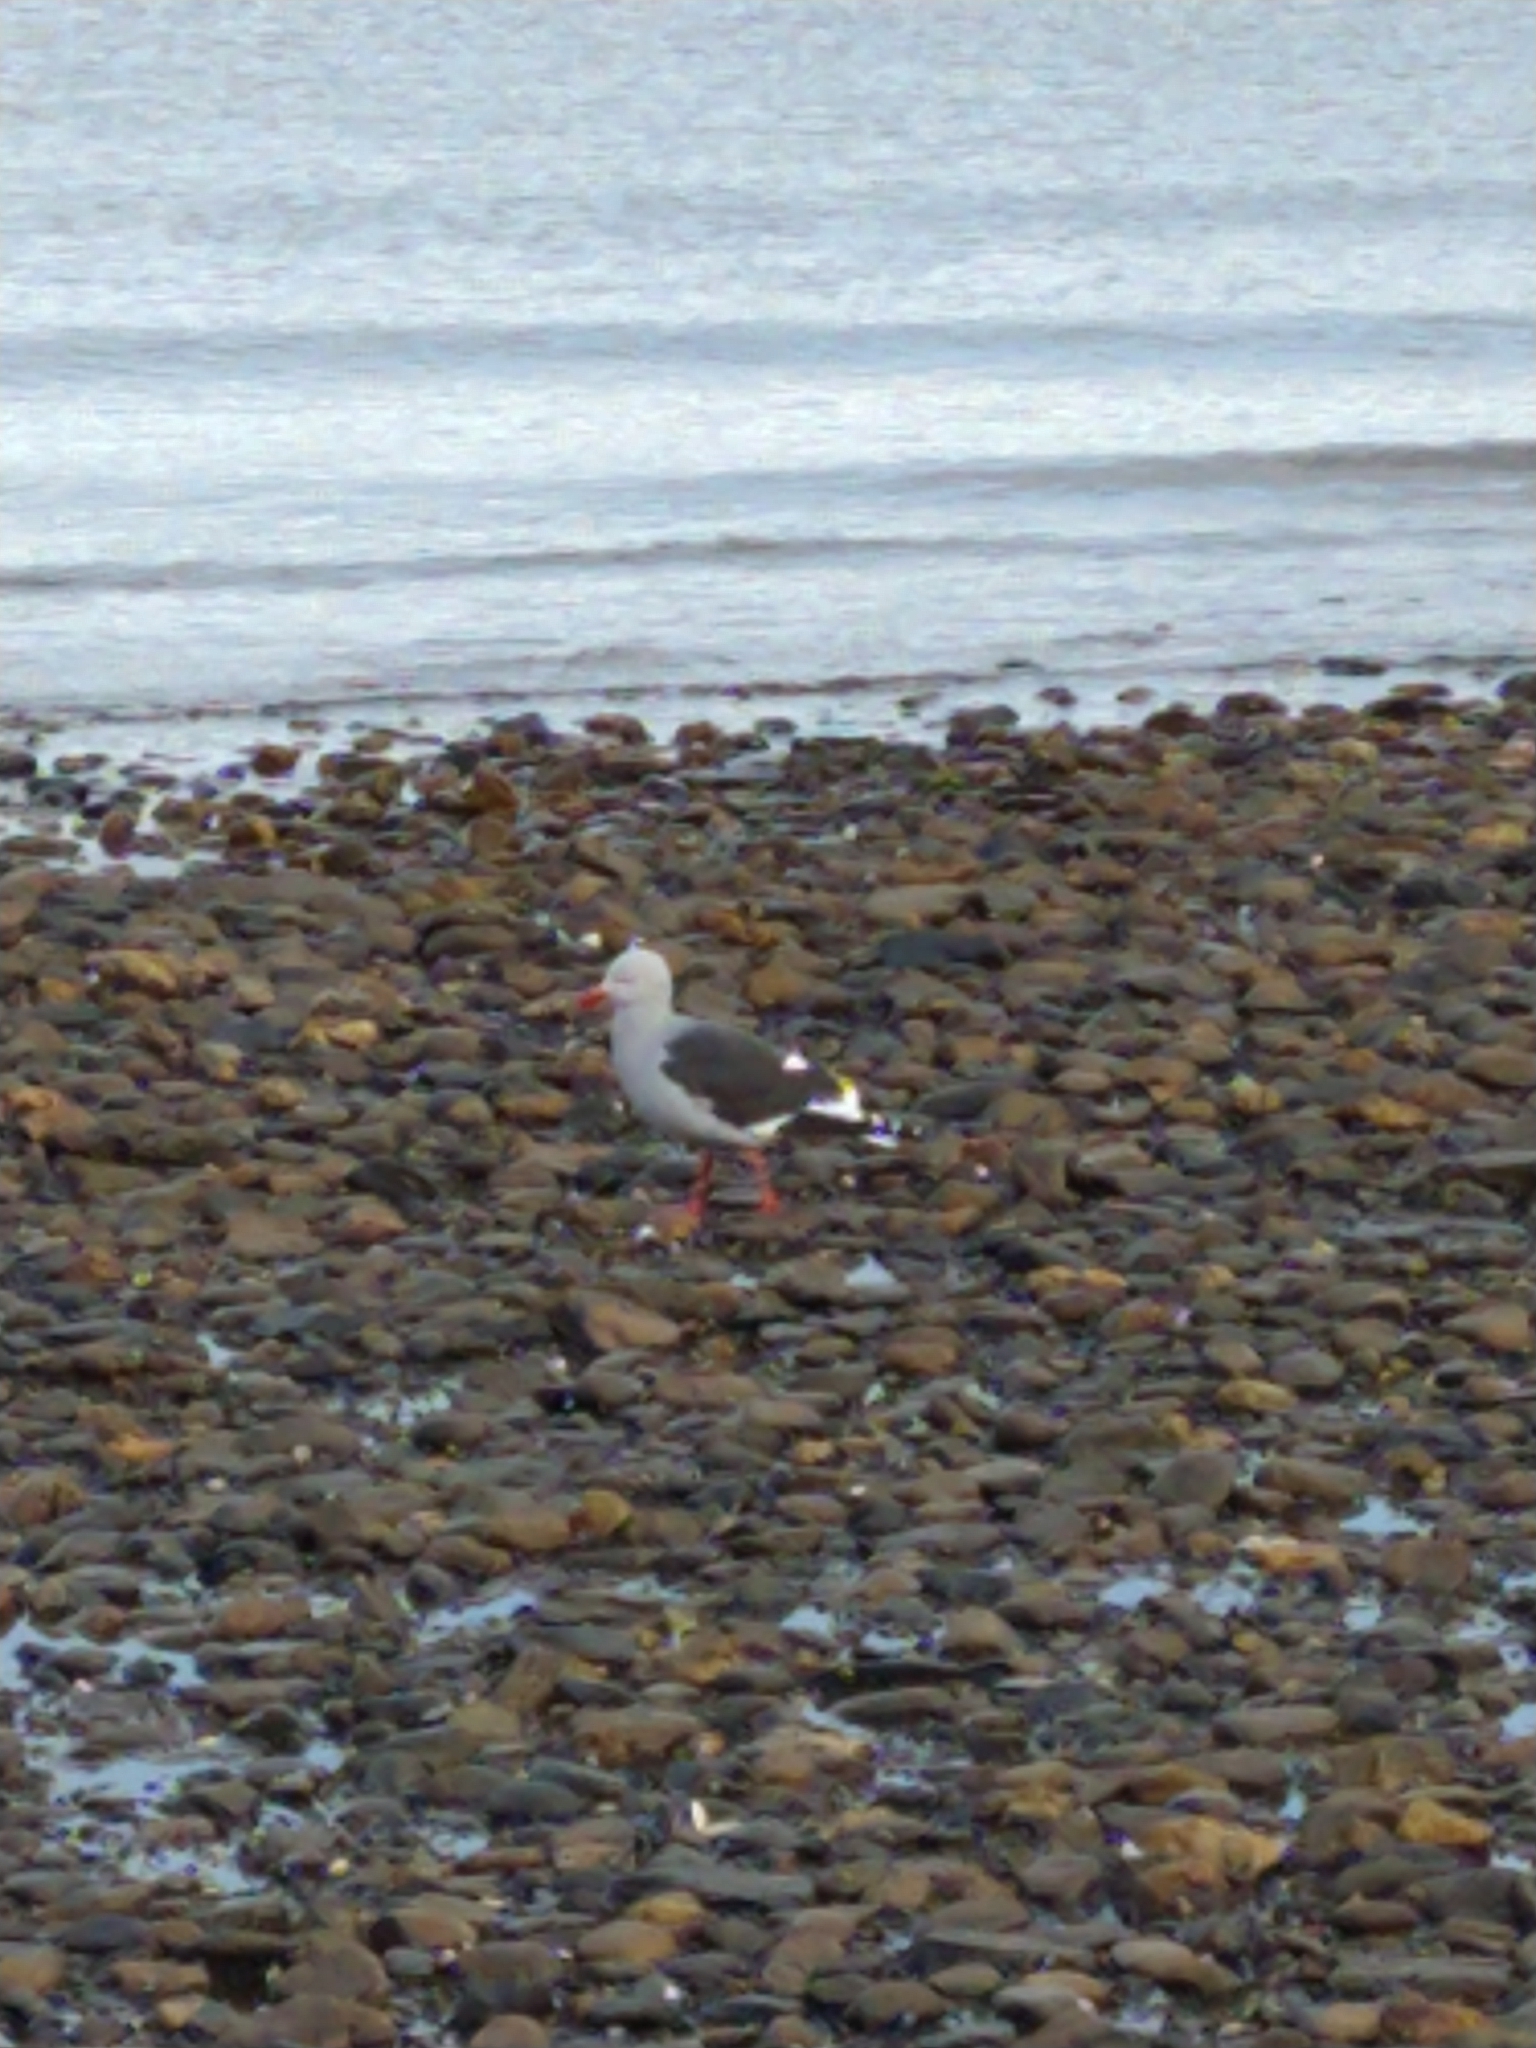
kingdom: Animalia
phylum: Chordata
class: Aves
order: Charadriiformes
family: Laridae
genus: Leucophaeus
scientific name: Leucophaeus scoresbii
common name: Dolphin gull
